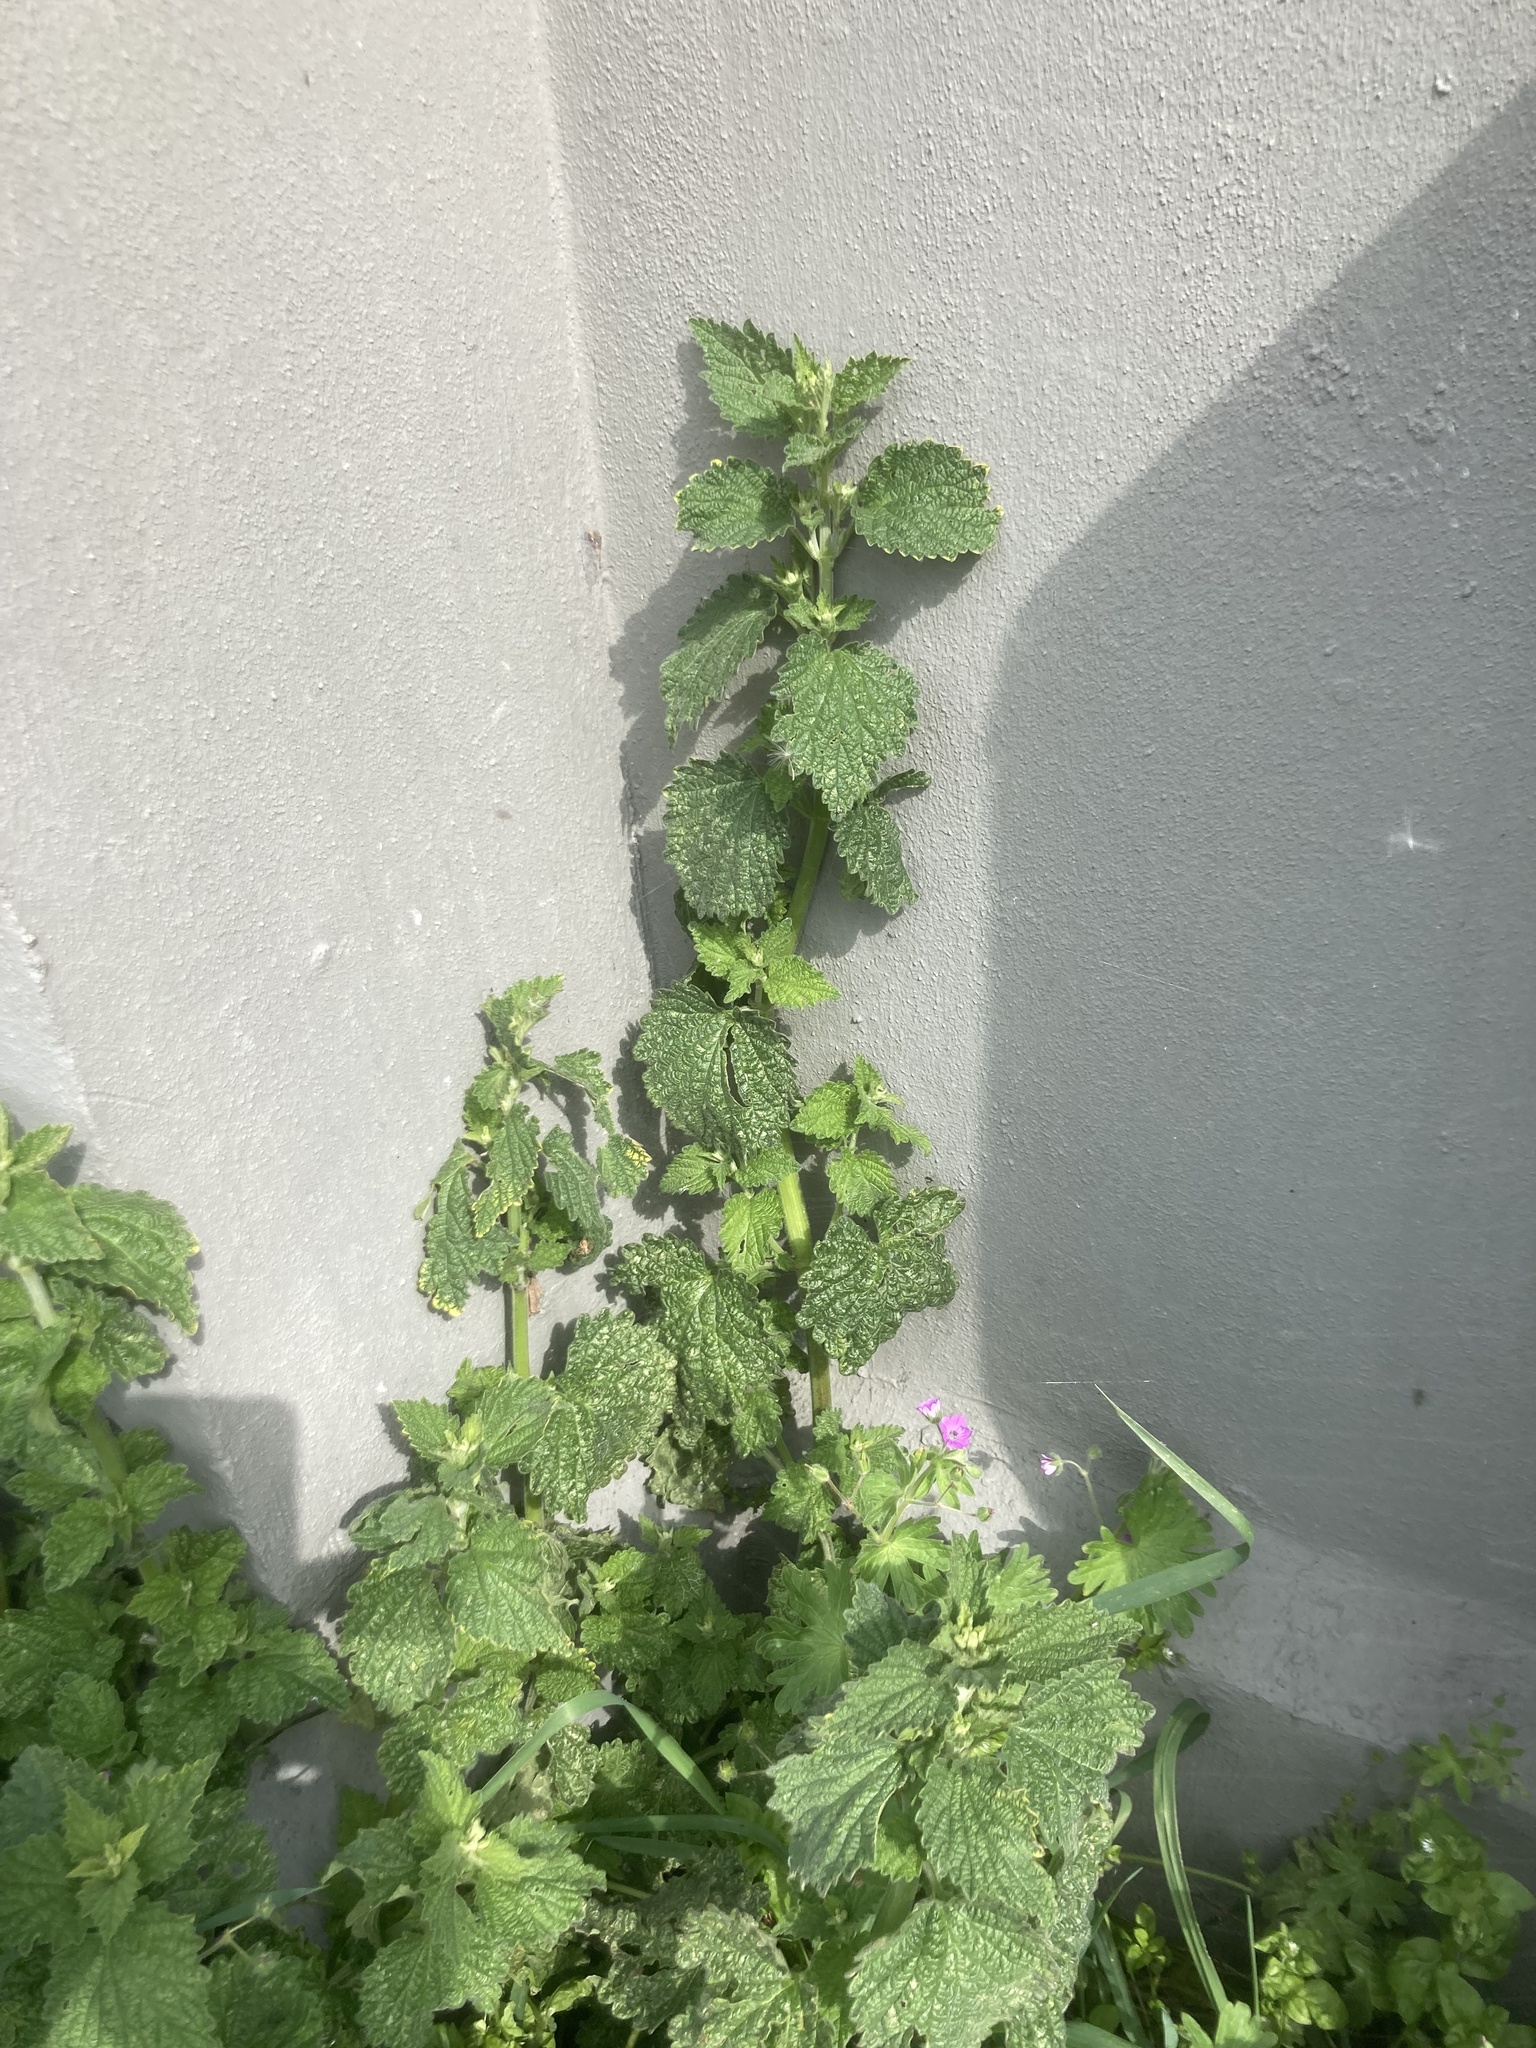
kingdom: Plantae
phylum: Tracheophyta
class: Magnoliopsida
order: Lamiales
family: Lamiaceae
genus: Ballota
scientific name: Ballota nigra
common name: Black horehound
